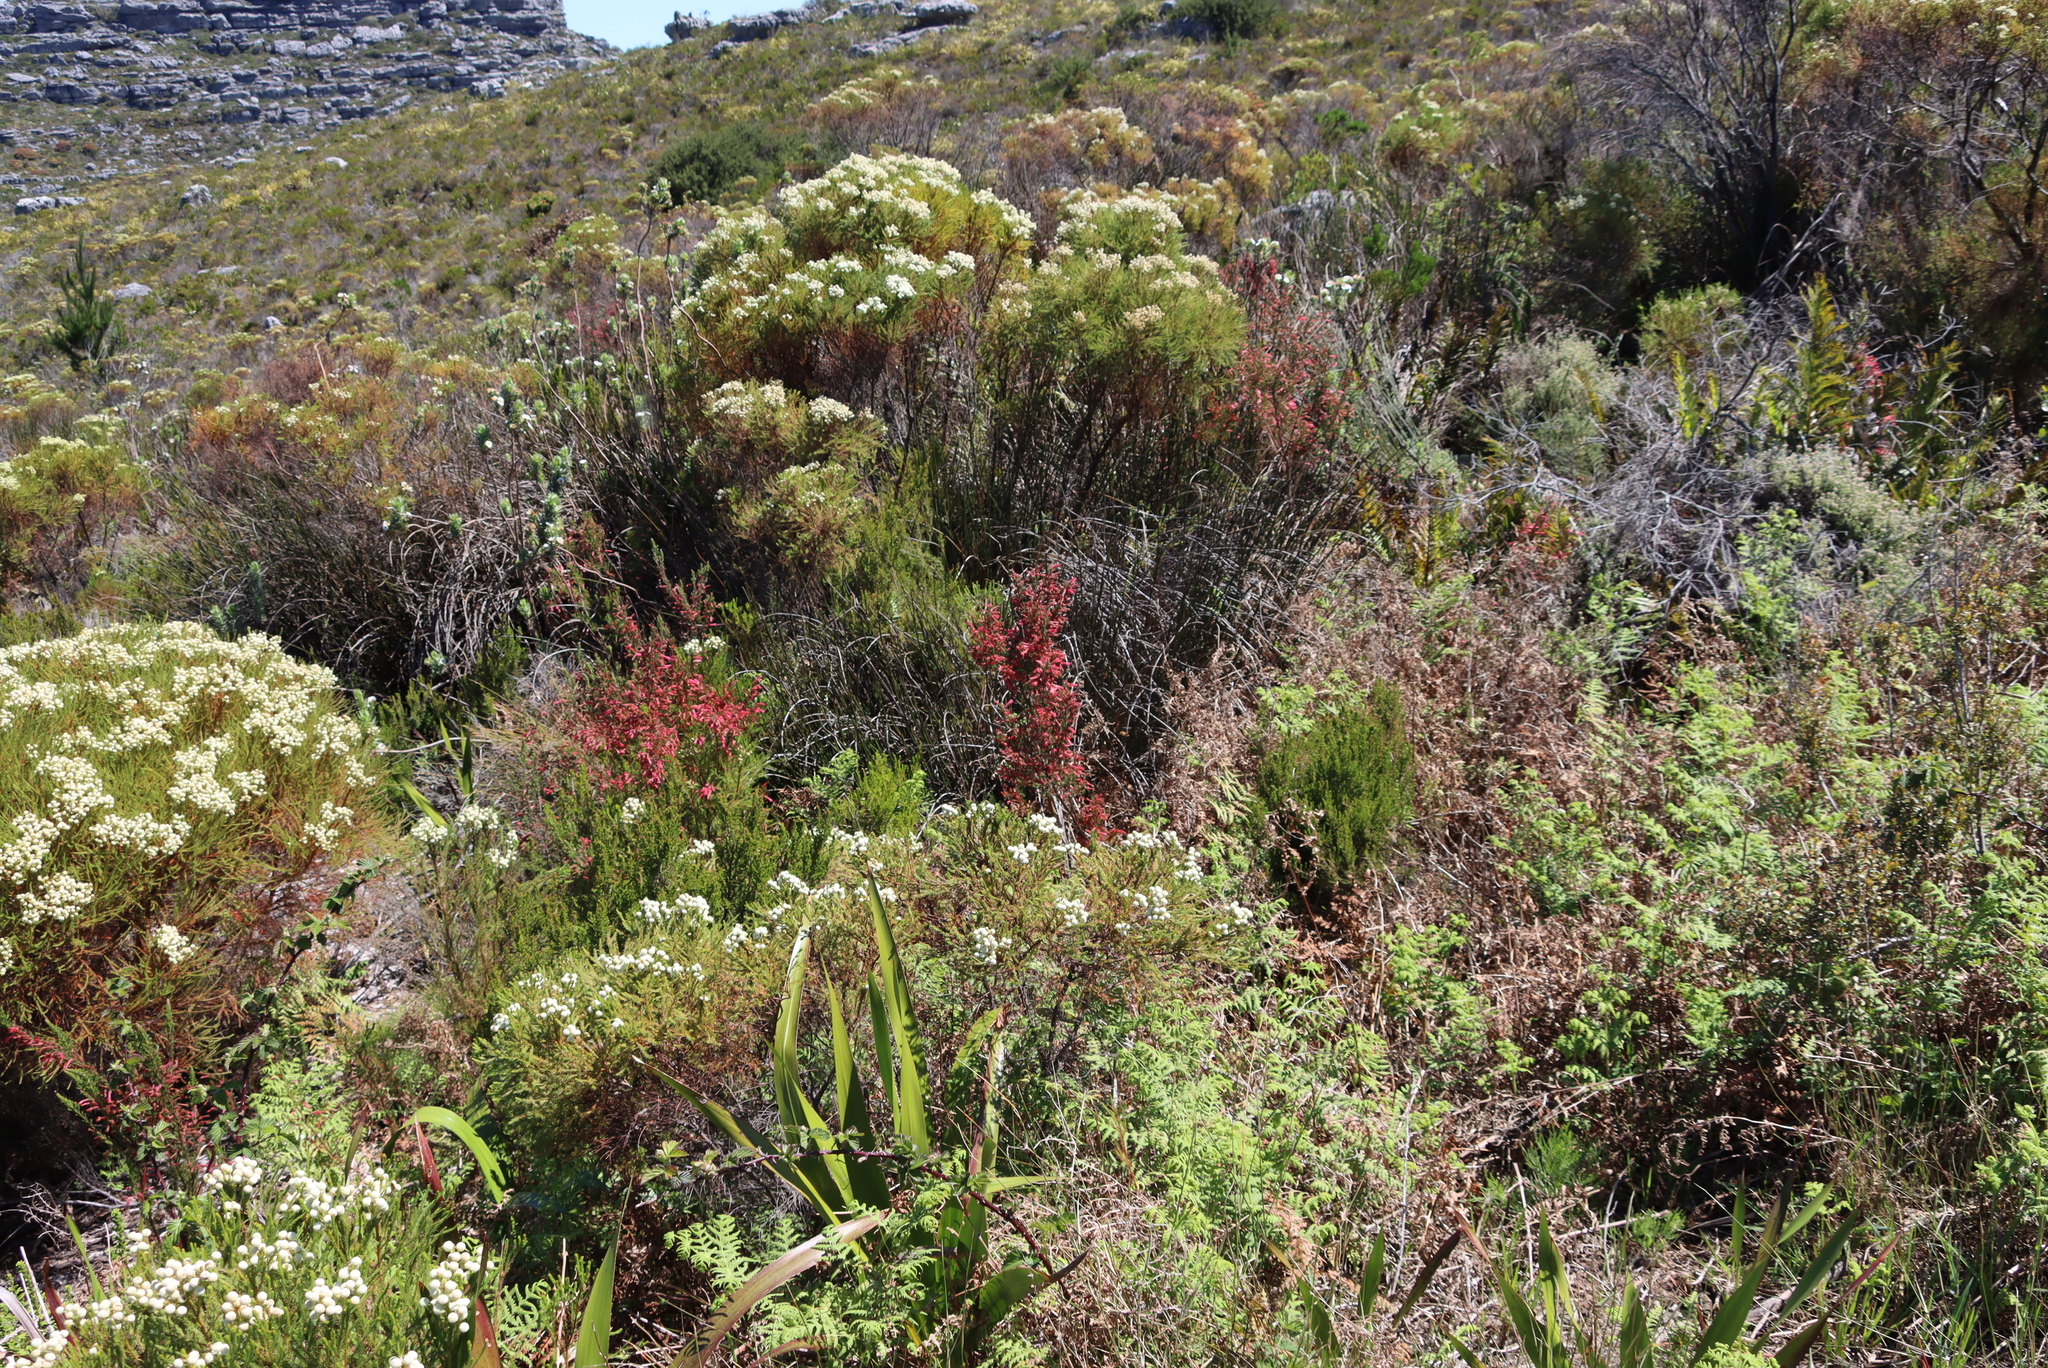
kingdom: Plantae
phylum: Tracheophyta
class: Magnoliopsida
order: Bruniales
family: Bruniaceae
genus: Berzelia
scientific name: Berzelia lanuginosa
